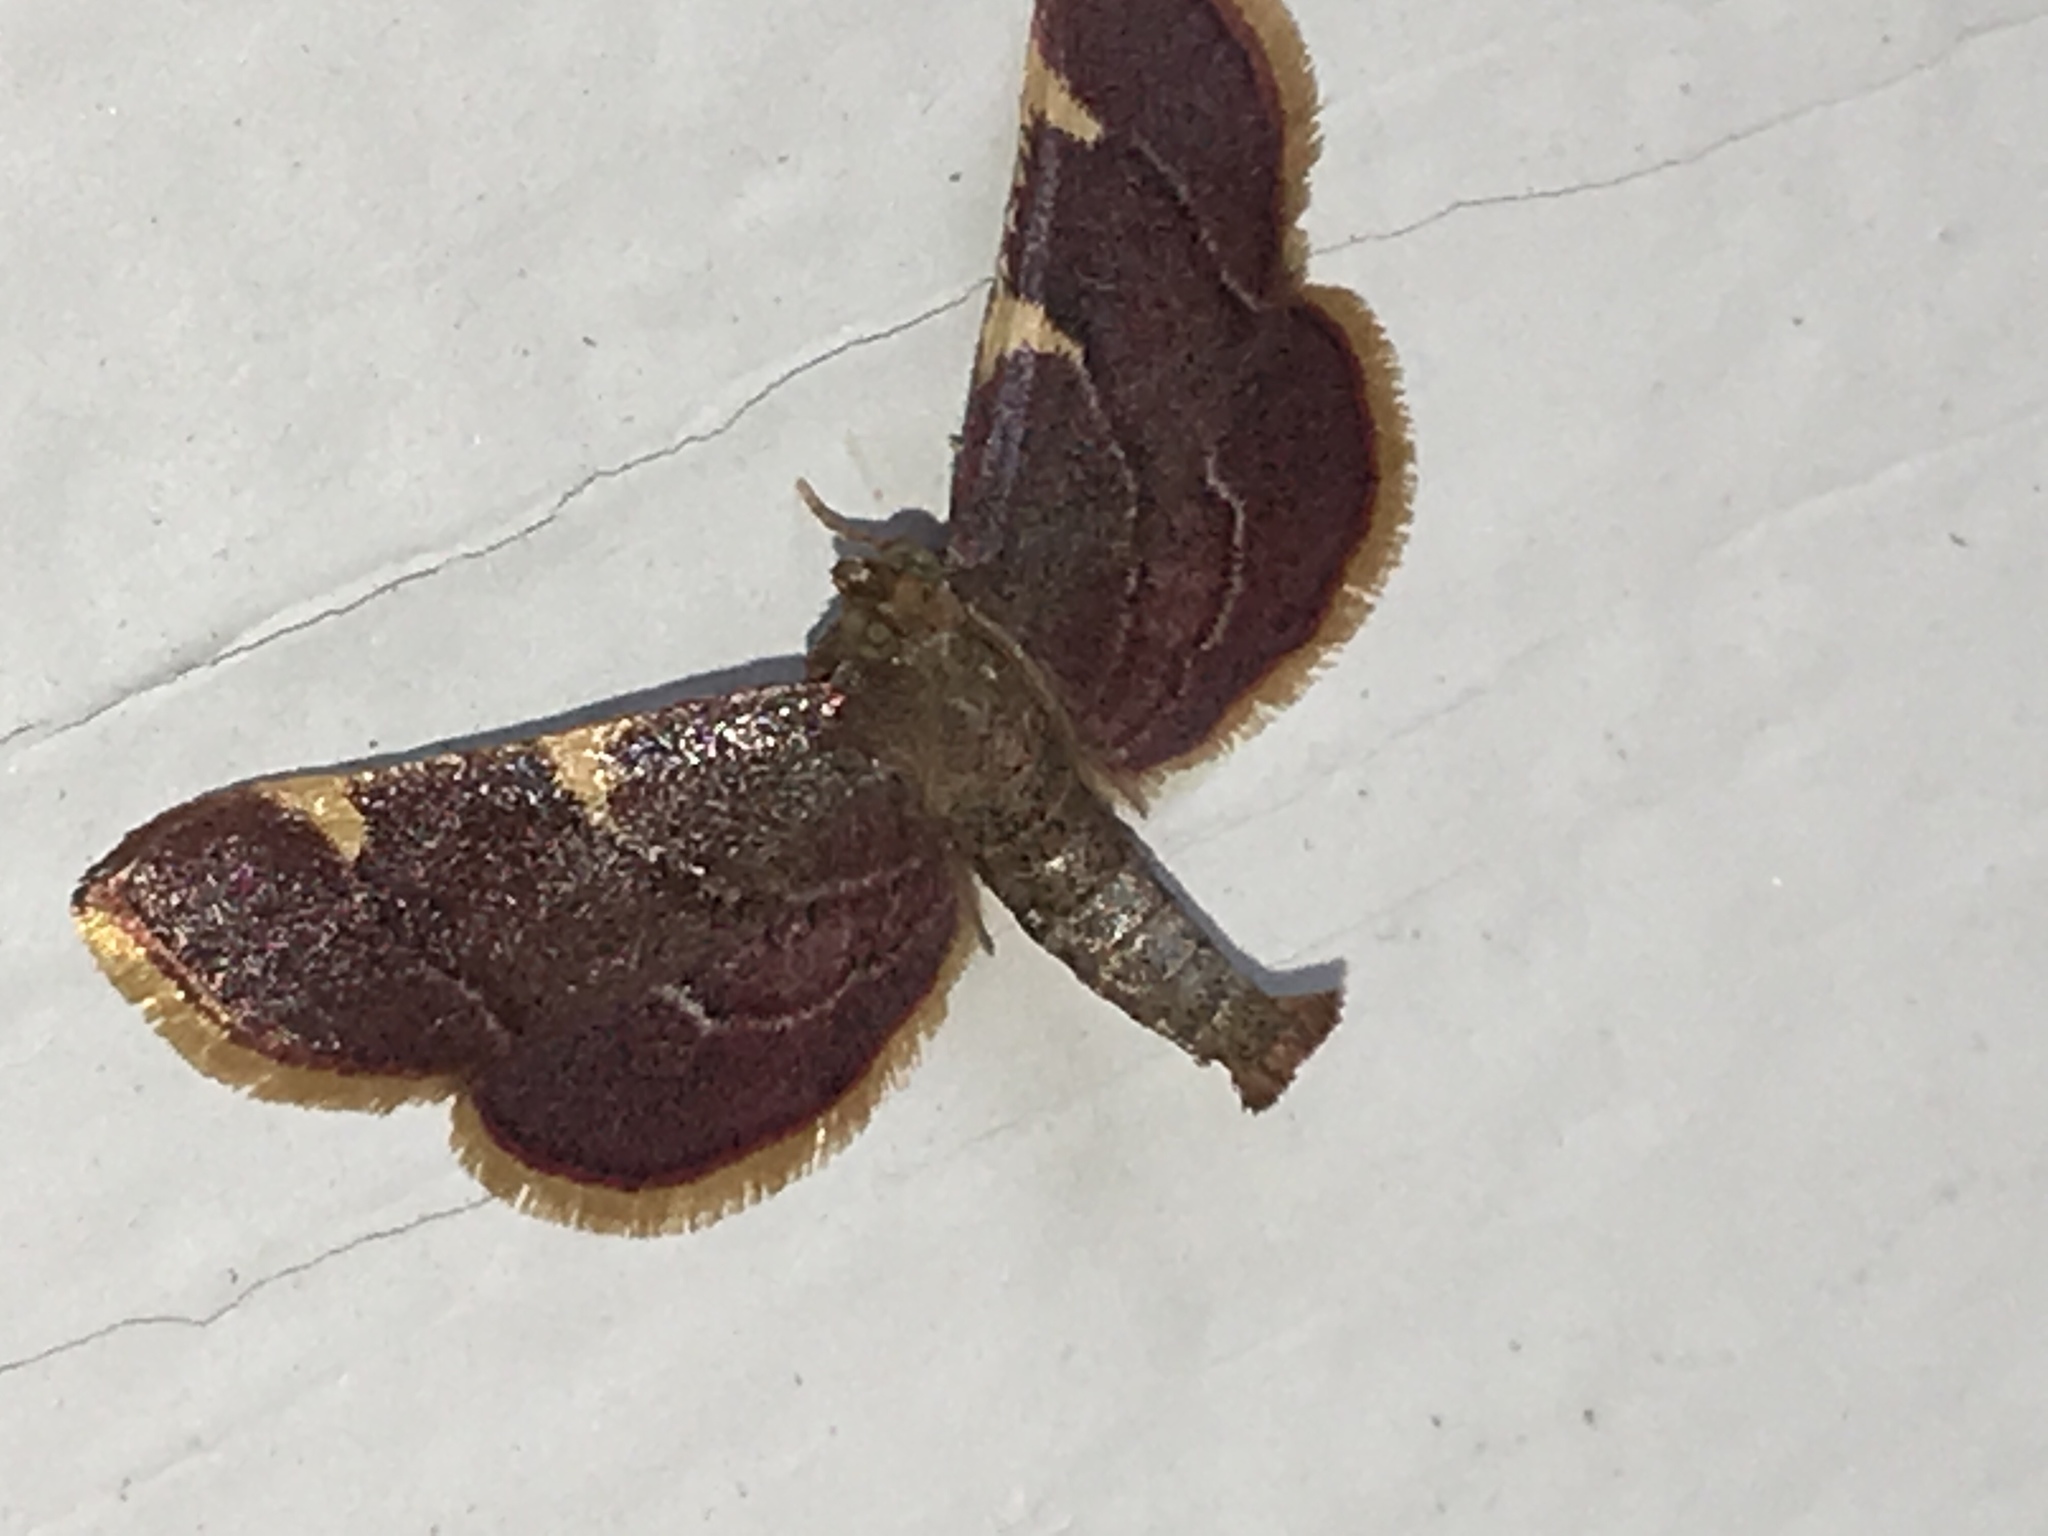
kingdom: Animalia
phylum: Arthropoda
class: Insecta
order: Lepidoptera
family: Pyralidae
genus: Hypsopygia
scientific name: Hypsopygia olinalis
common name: Yellow-fringed dolichomia moth
